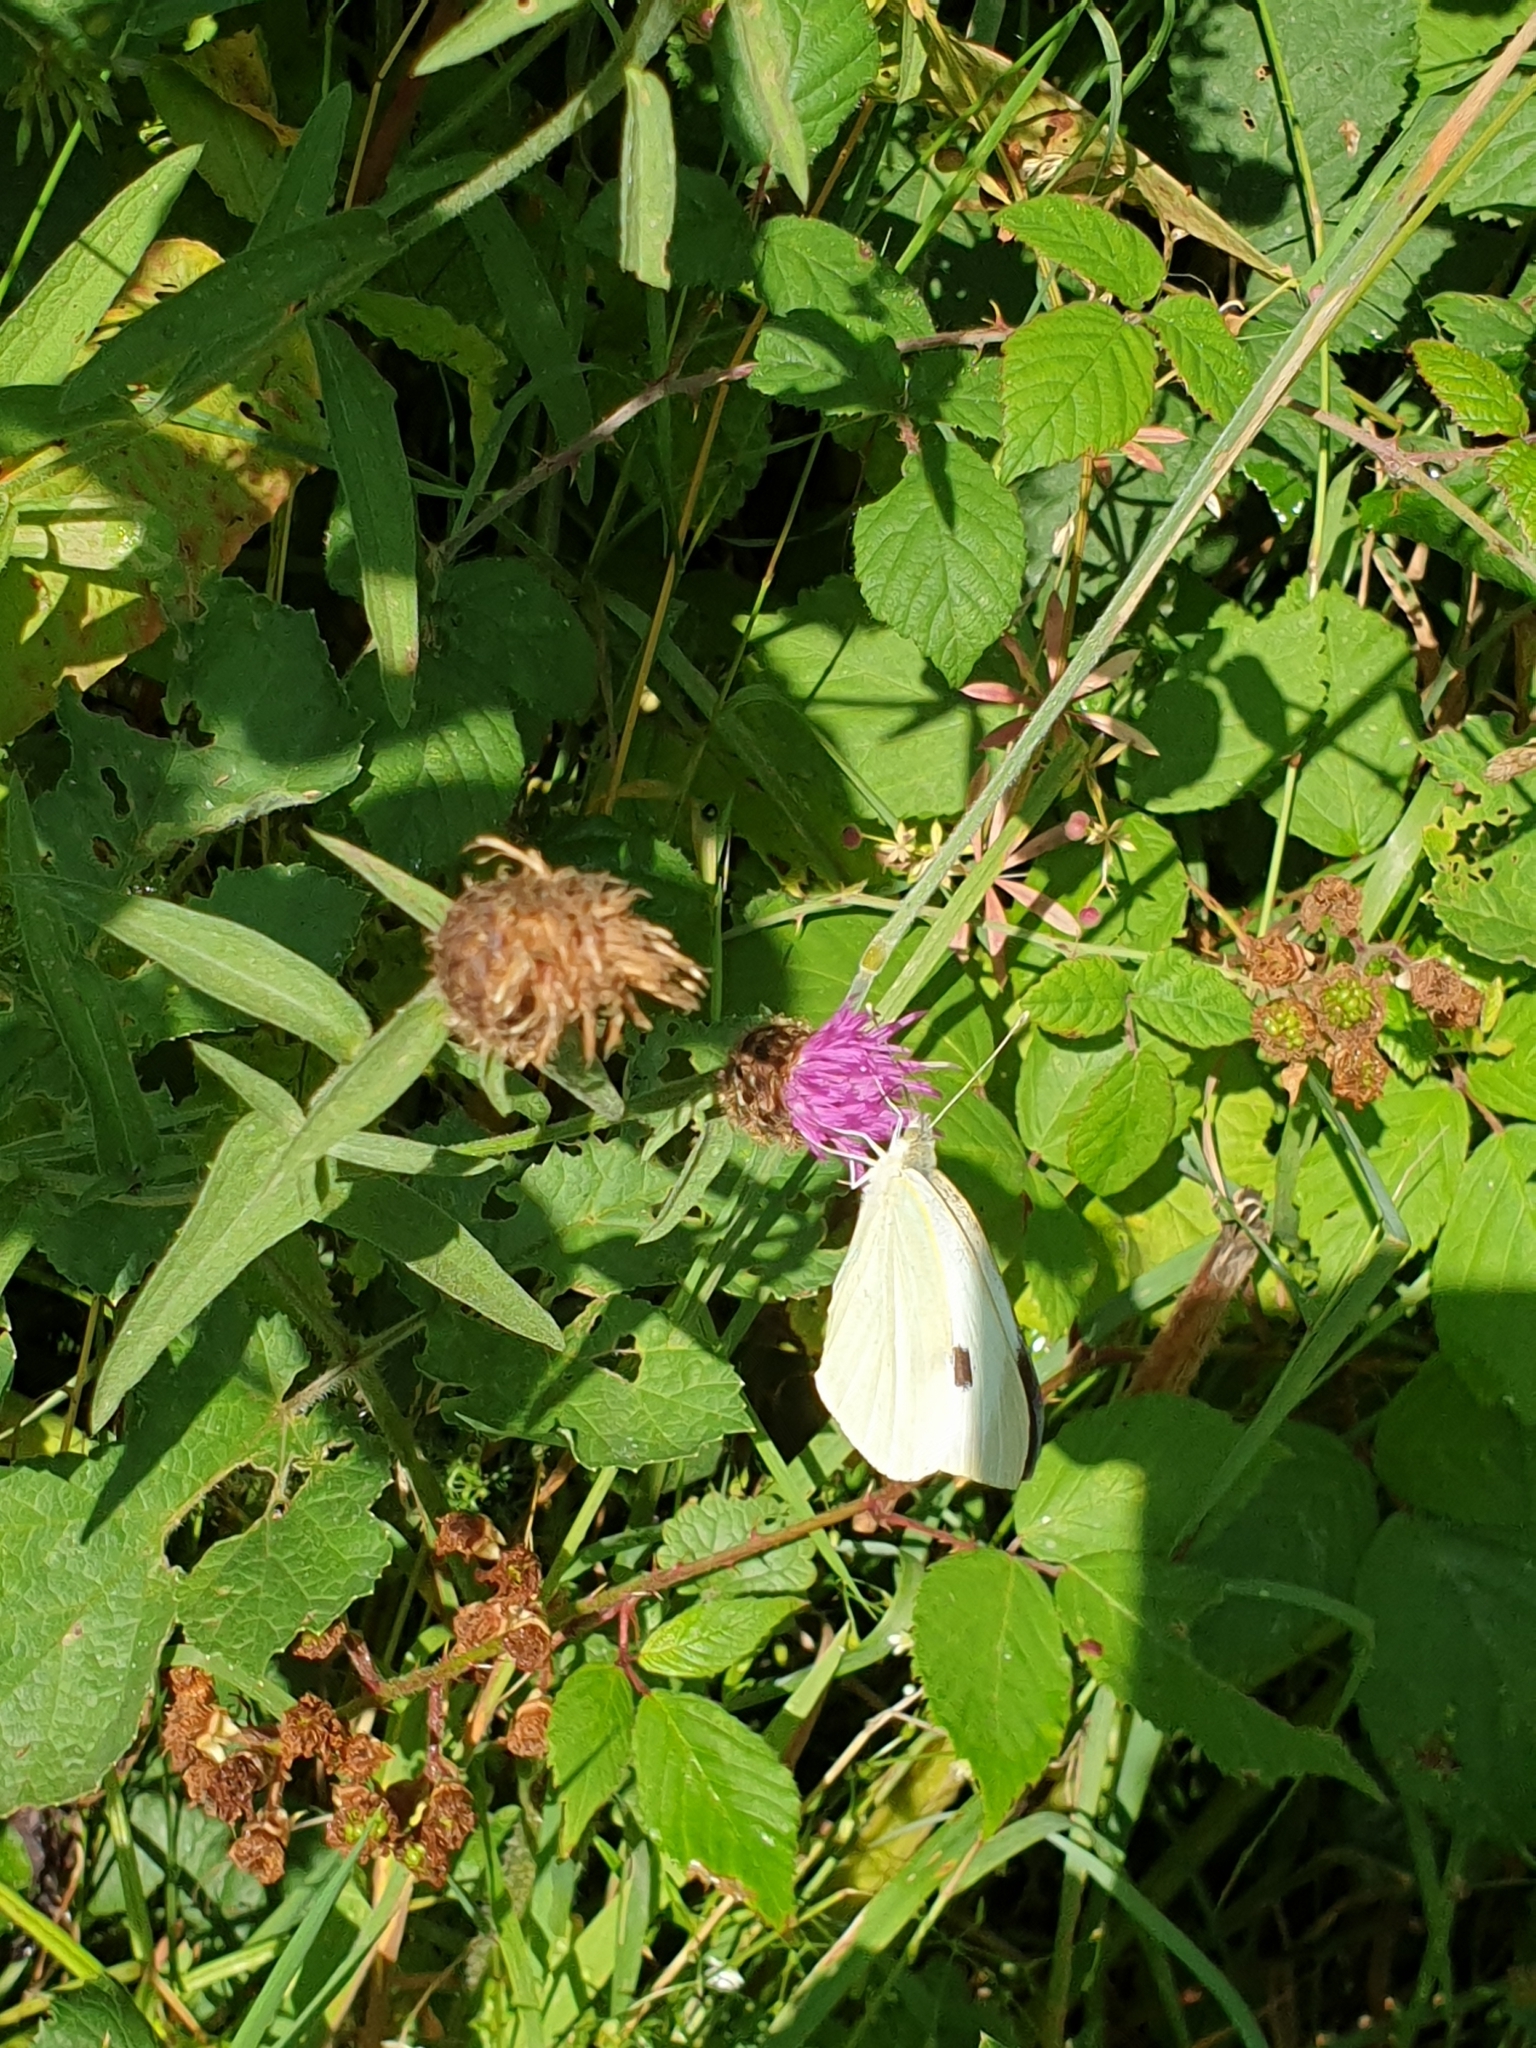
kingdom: Animalia
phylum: Arthropoda
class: Insecta
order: Lepidoptera
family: Pieridae
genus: Pieris
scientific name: Pieris brassicae
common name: Large white
